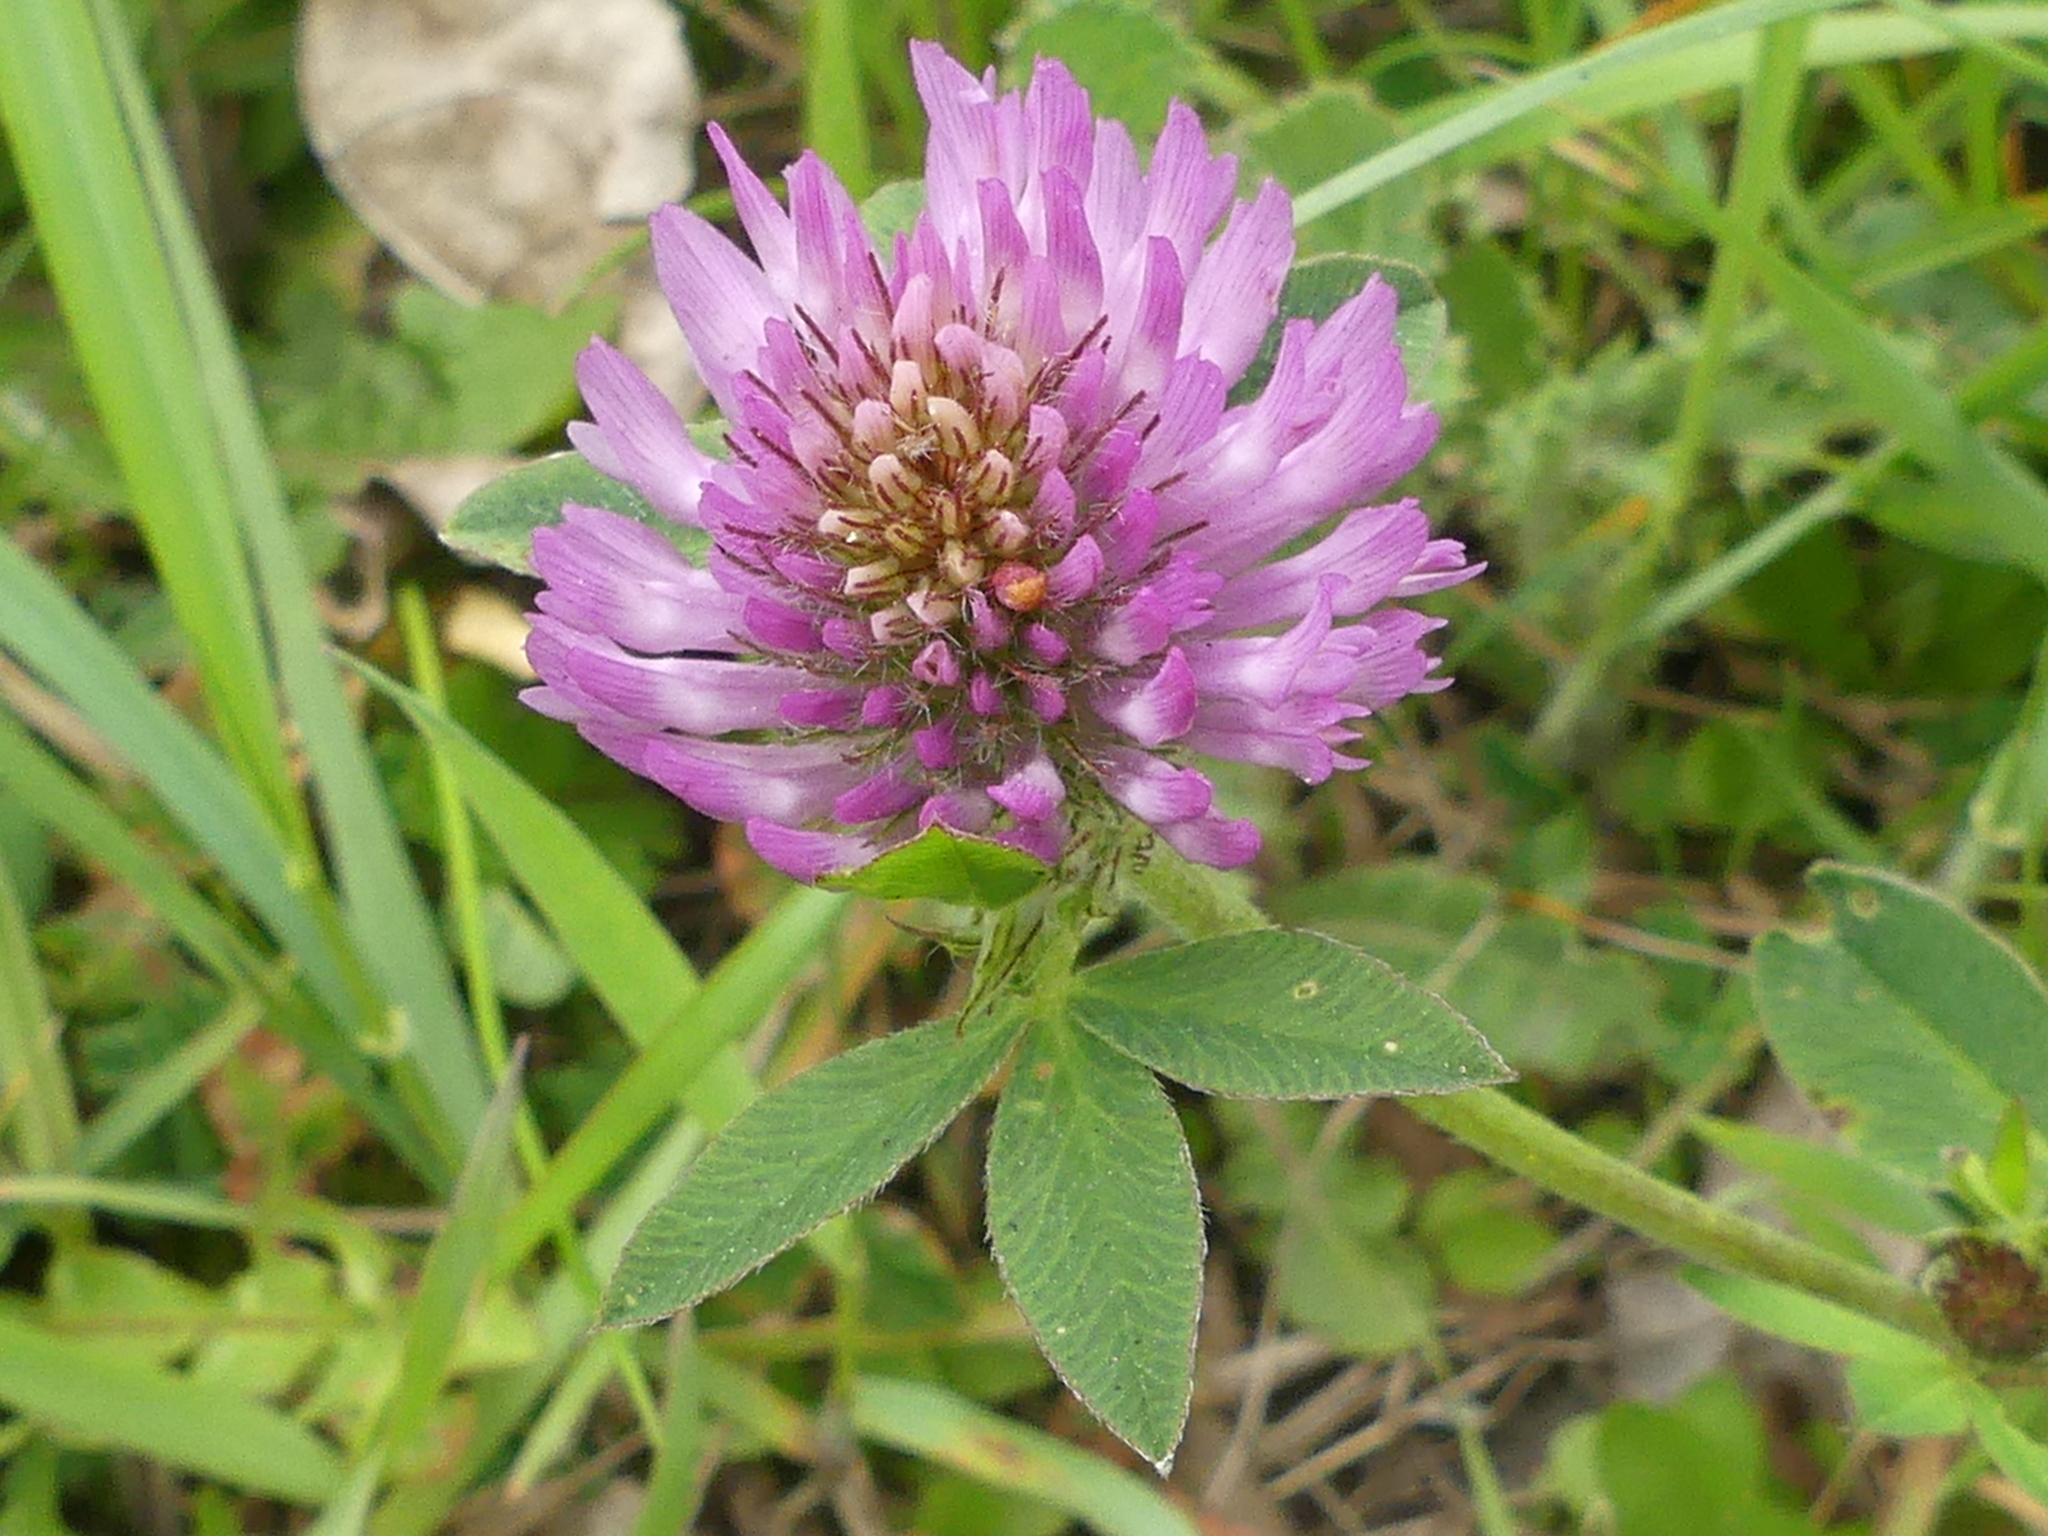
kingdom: Plantae
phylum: Tracheophyta
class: Magnoliopsida
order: Fabales
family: Fabaceae
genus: Trifolium
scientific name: Trifolium pratense
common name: Red clover
